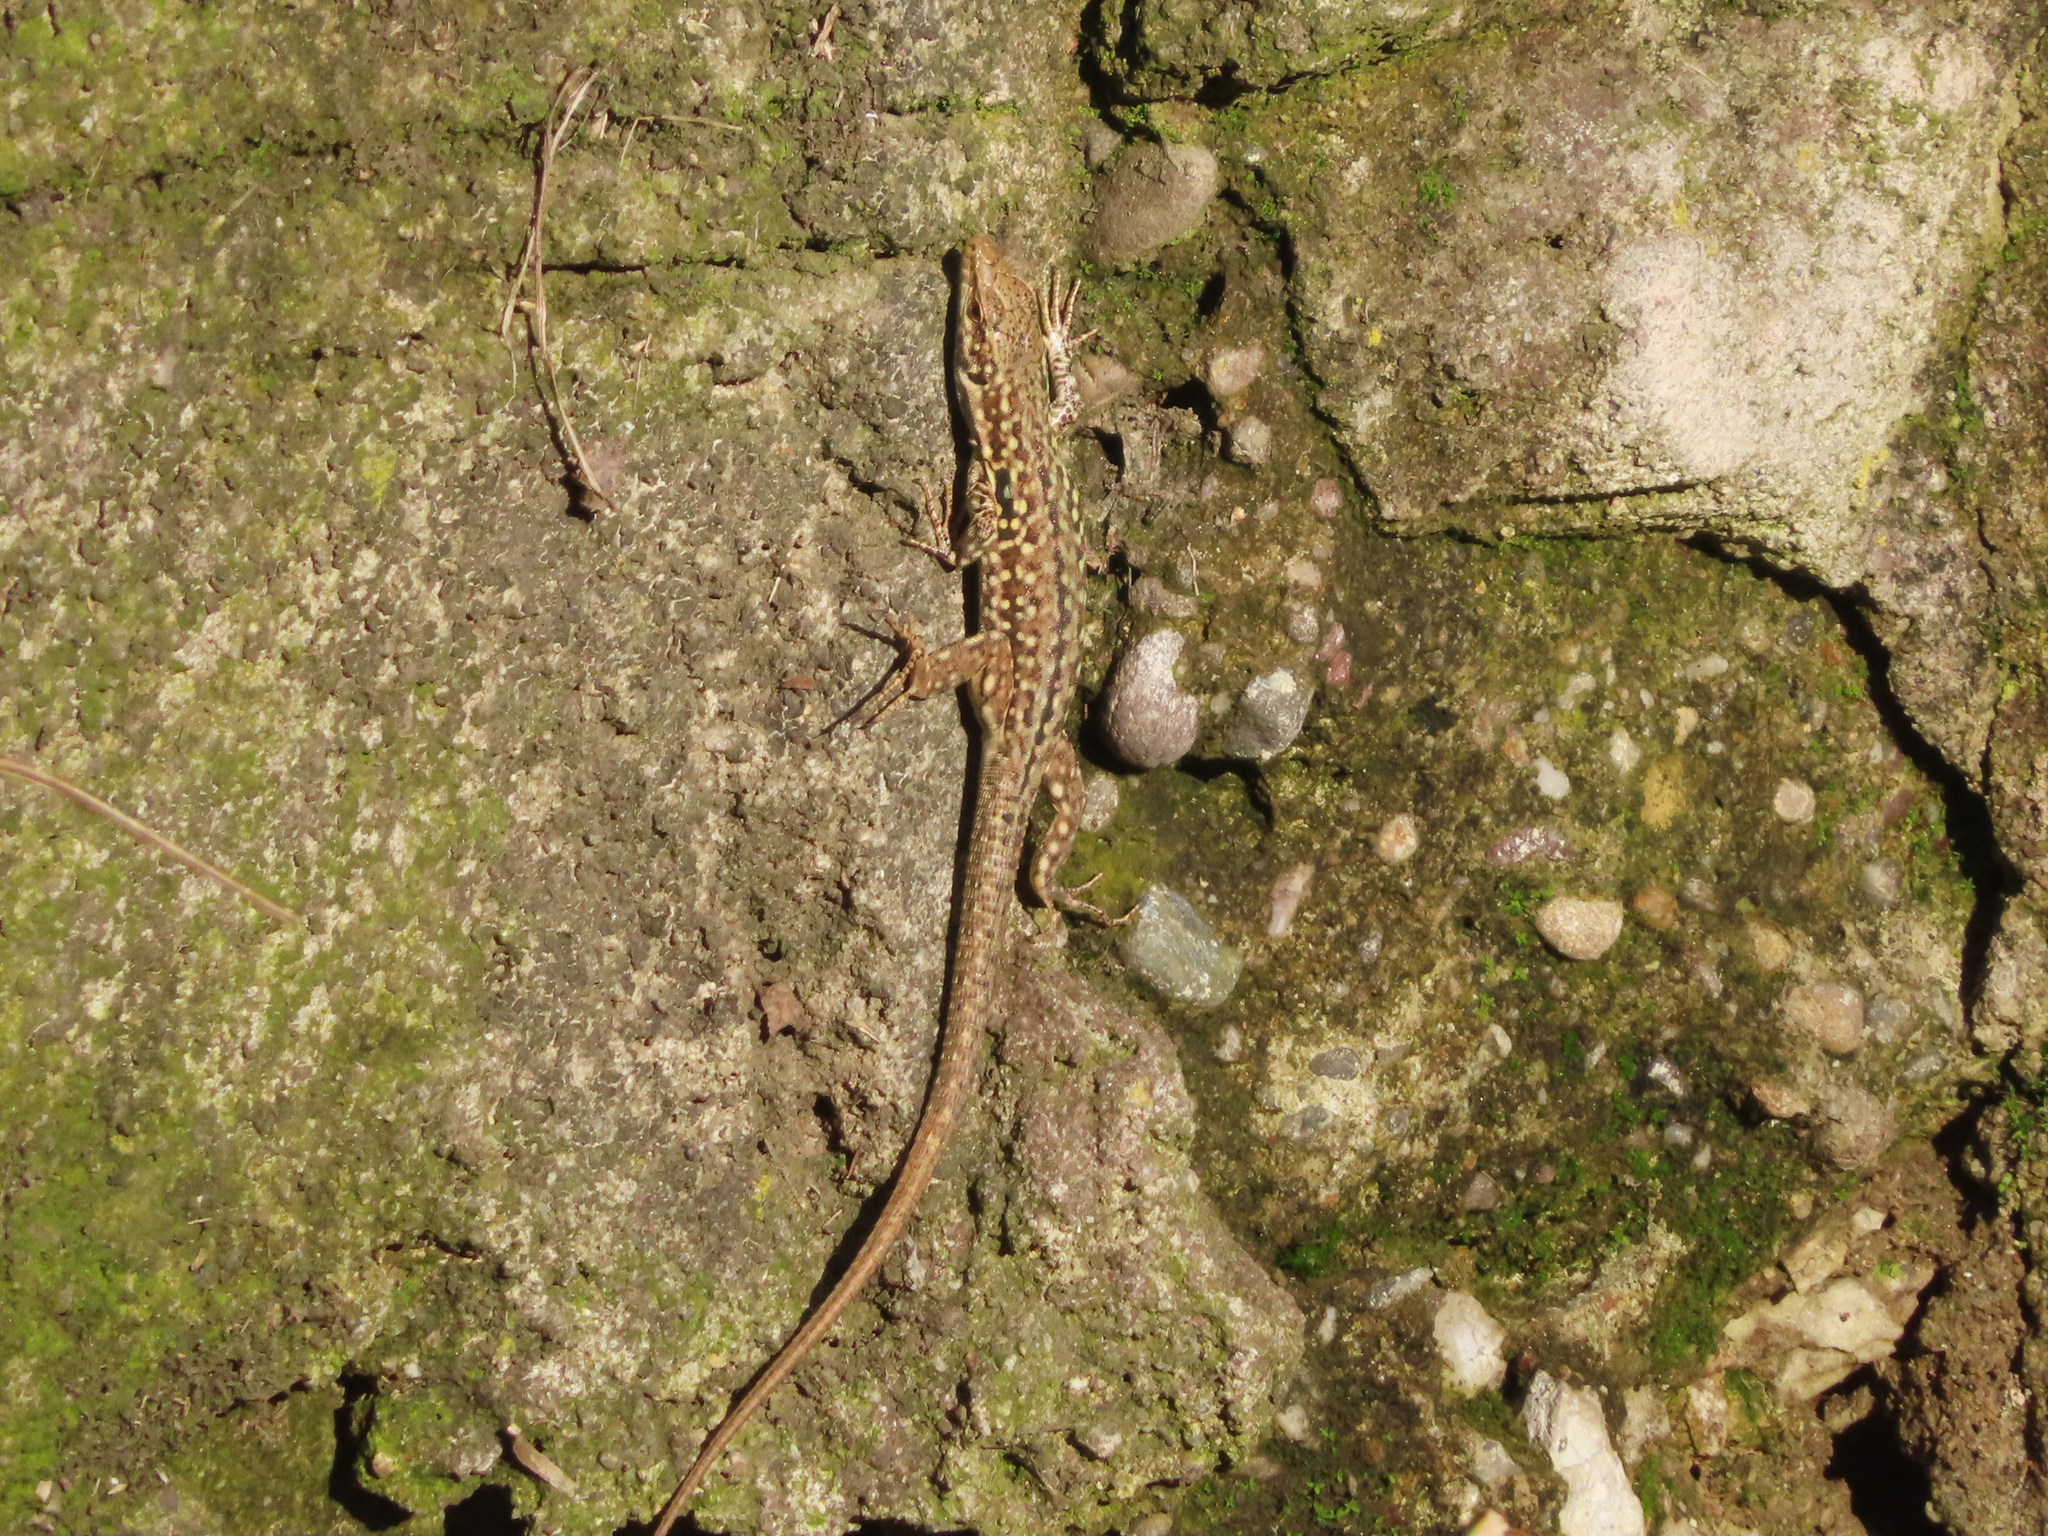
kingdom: Animalia
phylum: Chordata
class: Squamata
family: Lacertidae
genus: Podarcis
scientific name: Podarcis siculus
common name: Italian wall lizard
